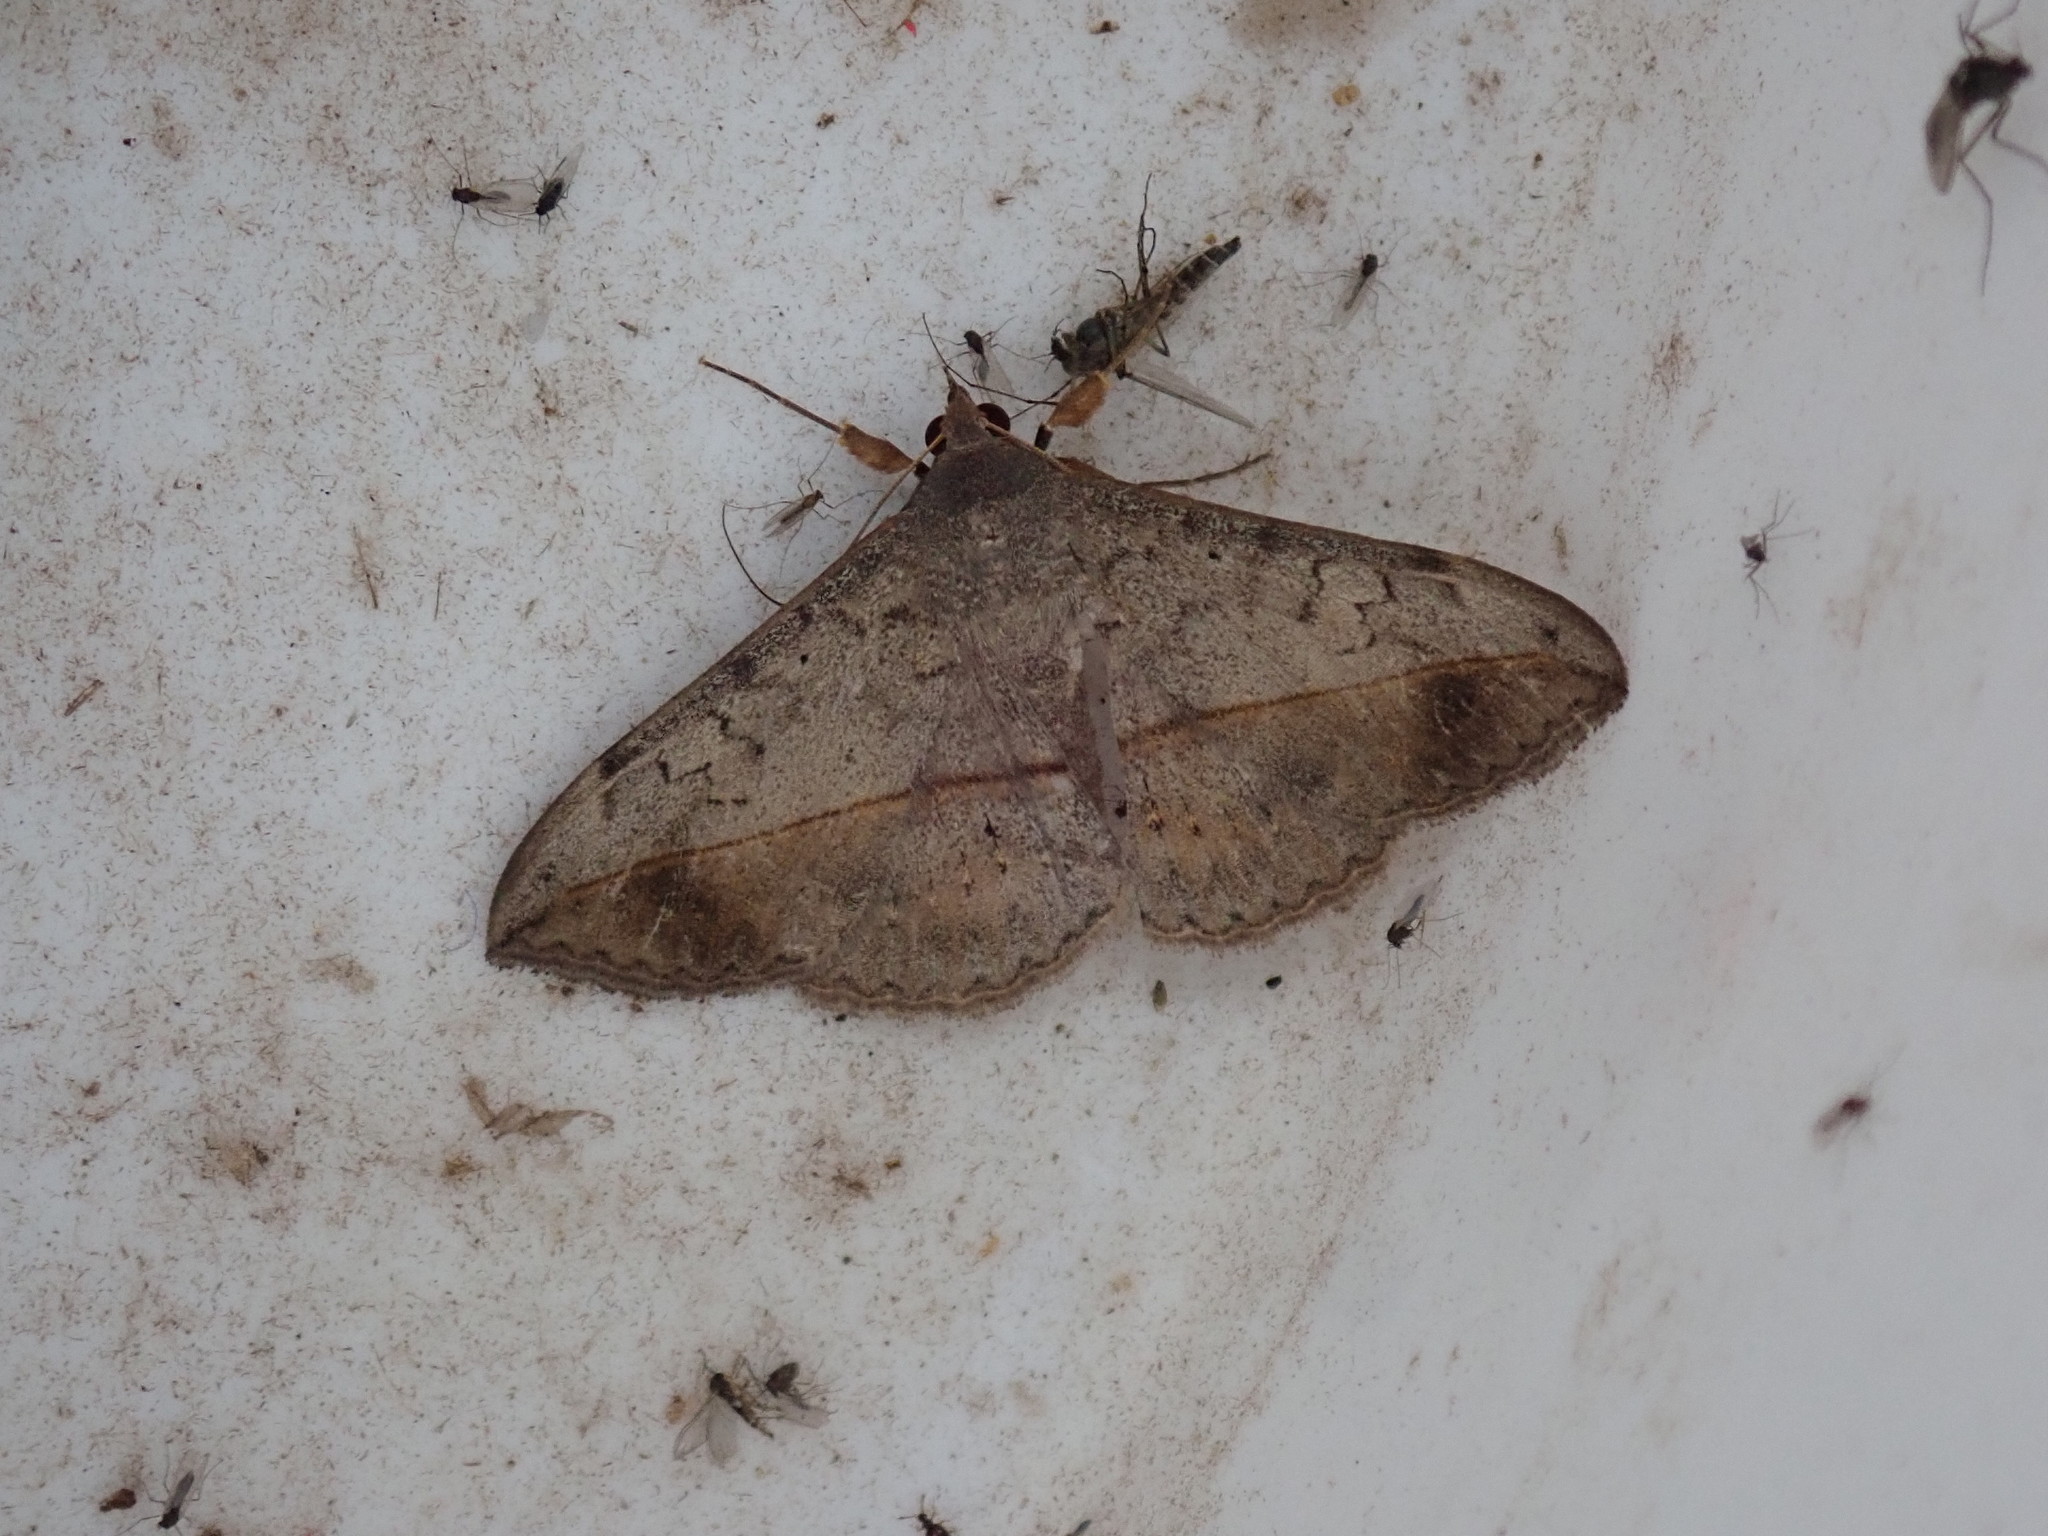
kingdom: Animalia
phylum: Arthropoda
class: Insecta
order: Lepidoptera
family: Erebidae
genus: Anticarsia
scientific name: Anticarsia gemmatalis
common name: Cutworm moth
